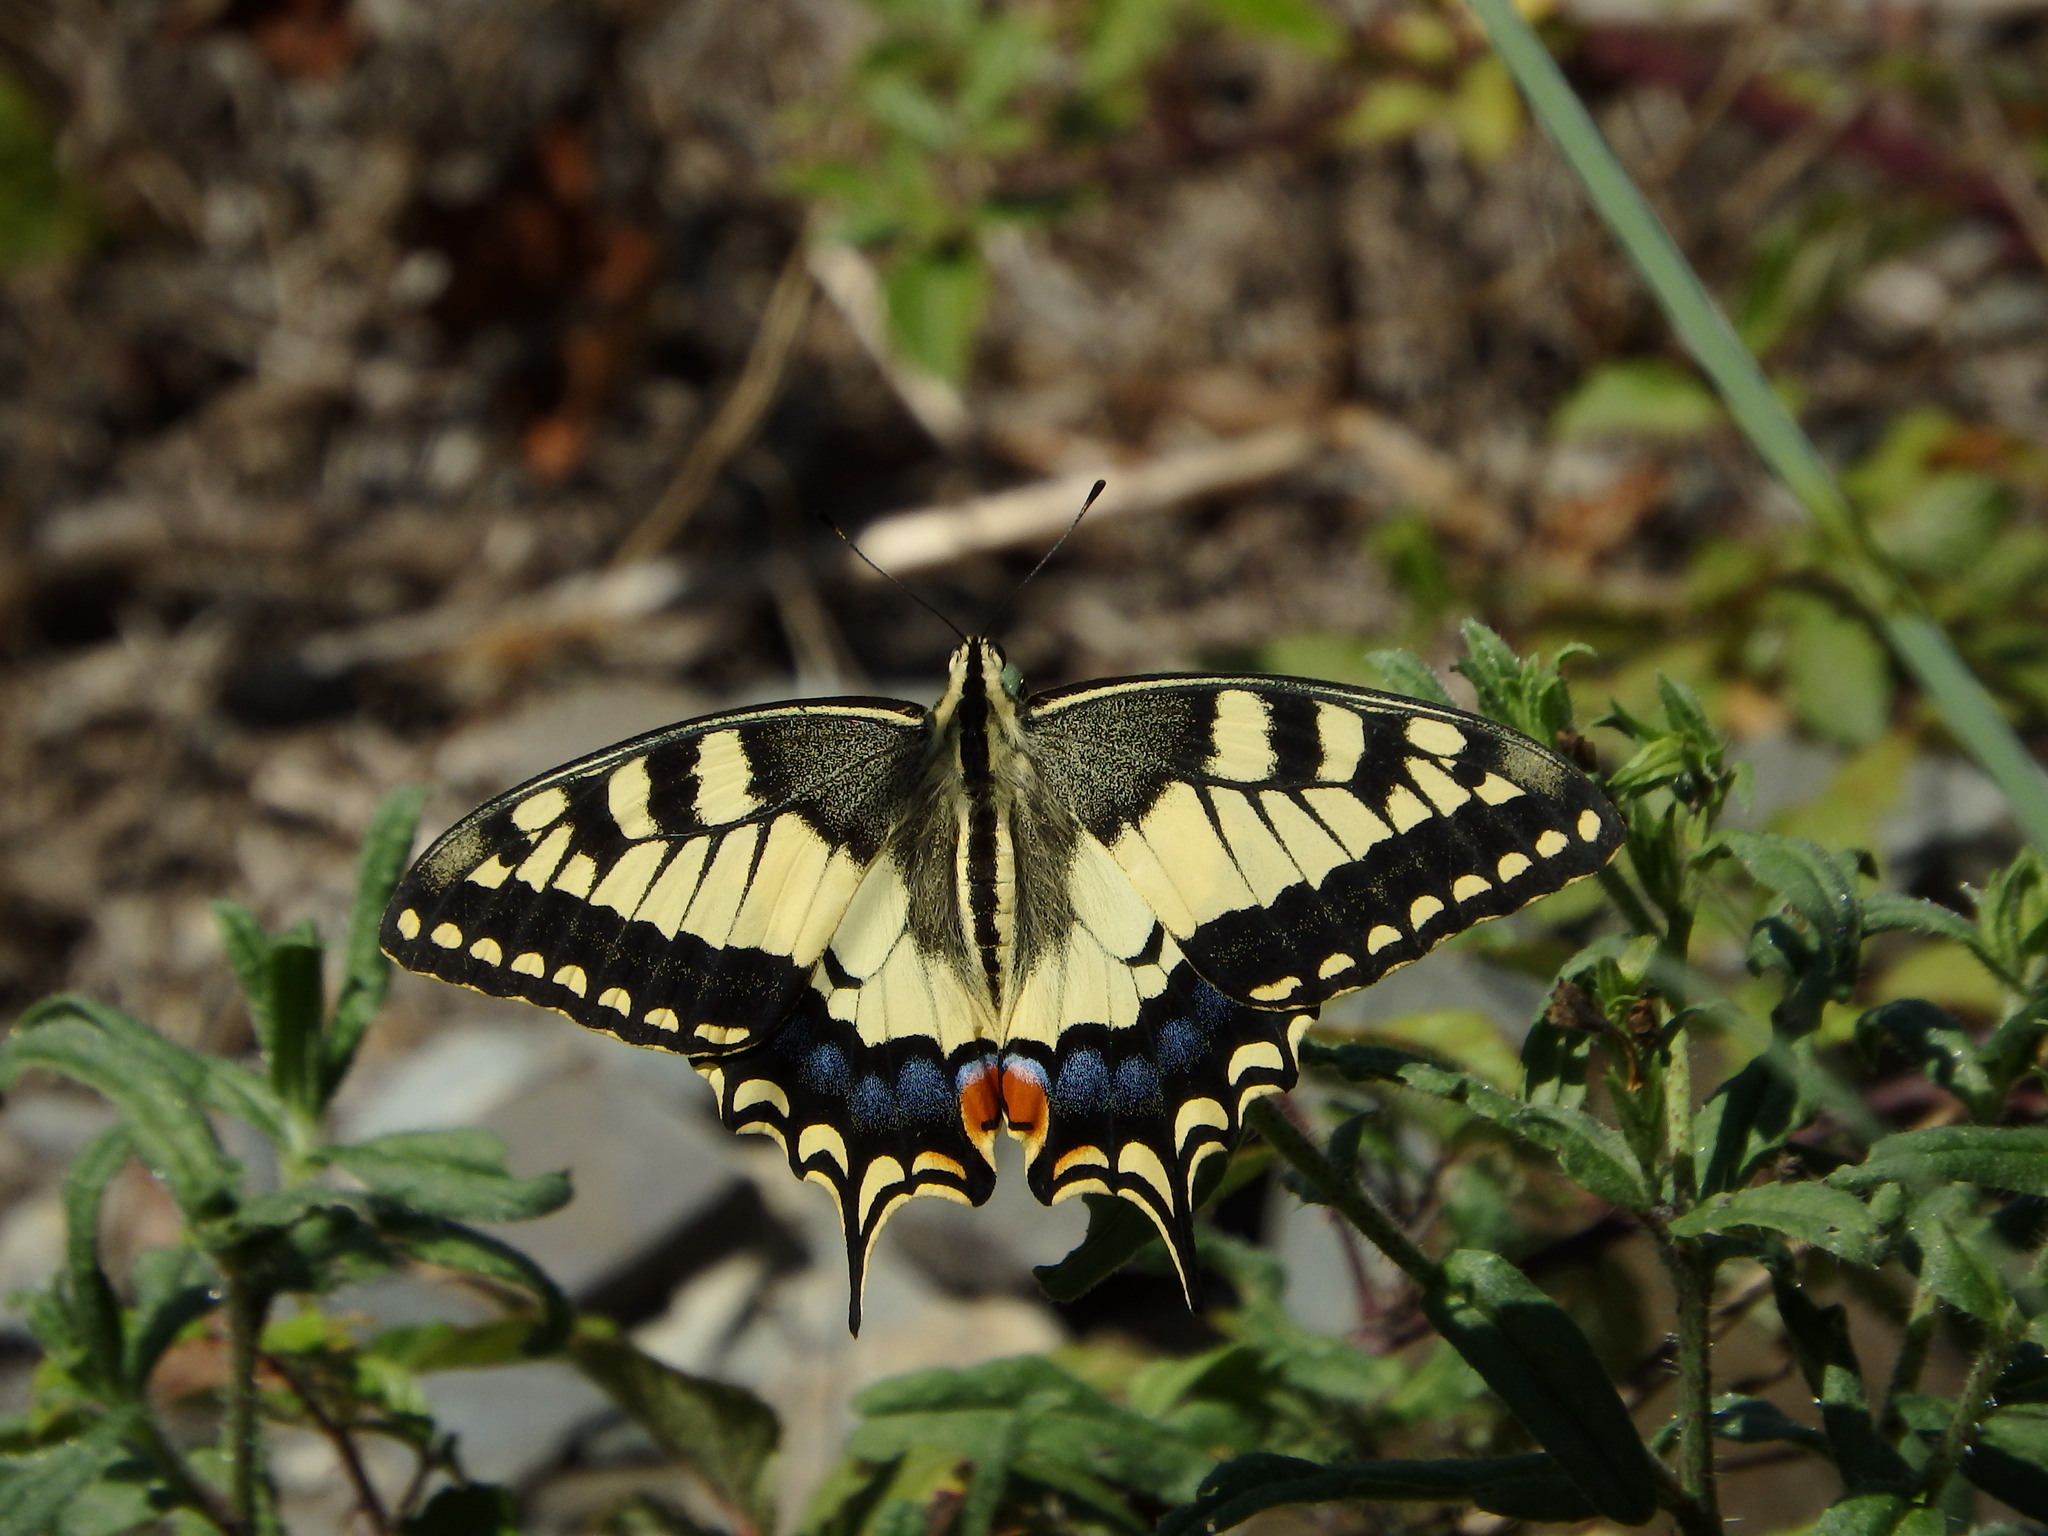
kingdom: Animalia
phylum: Arthropoda
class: Insecta
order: Lepidoptera
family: Papilionidae
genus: Papilio
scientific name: Papilio machaon
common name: Swallowtail
